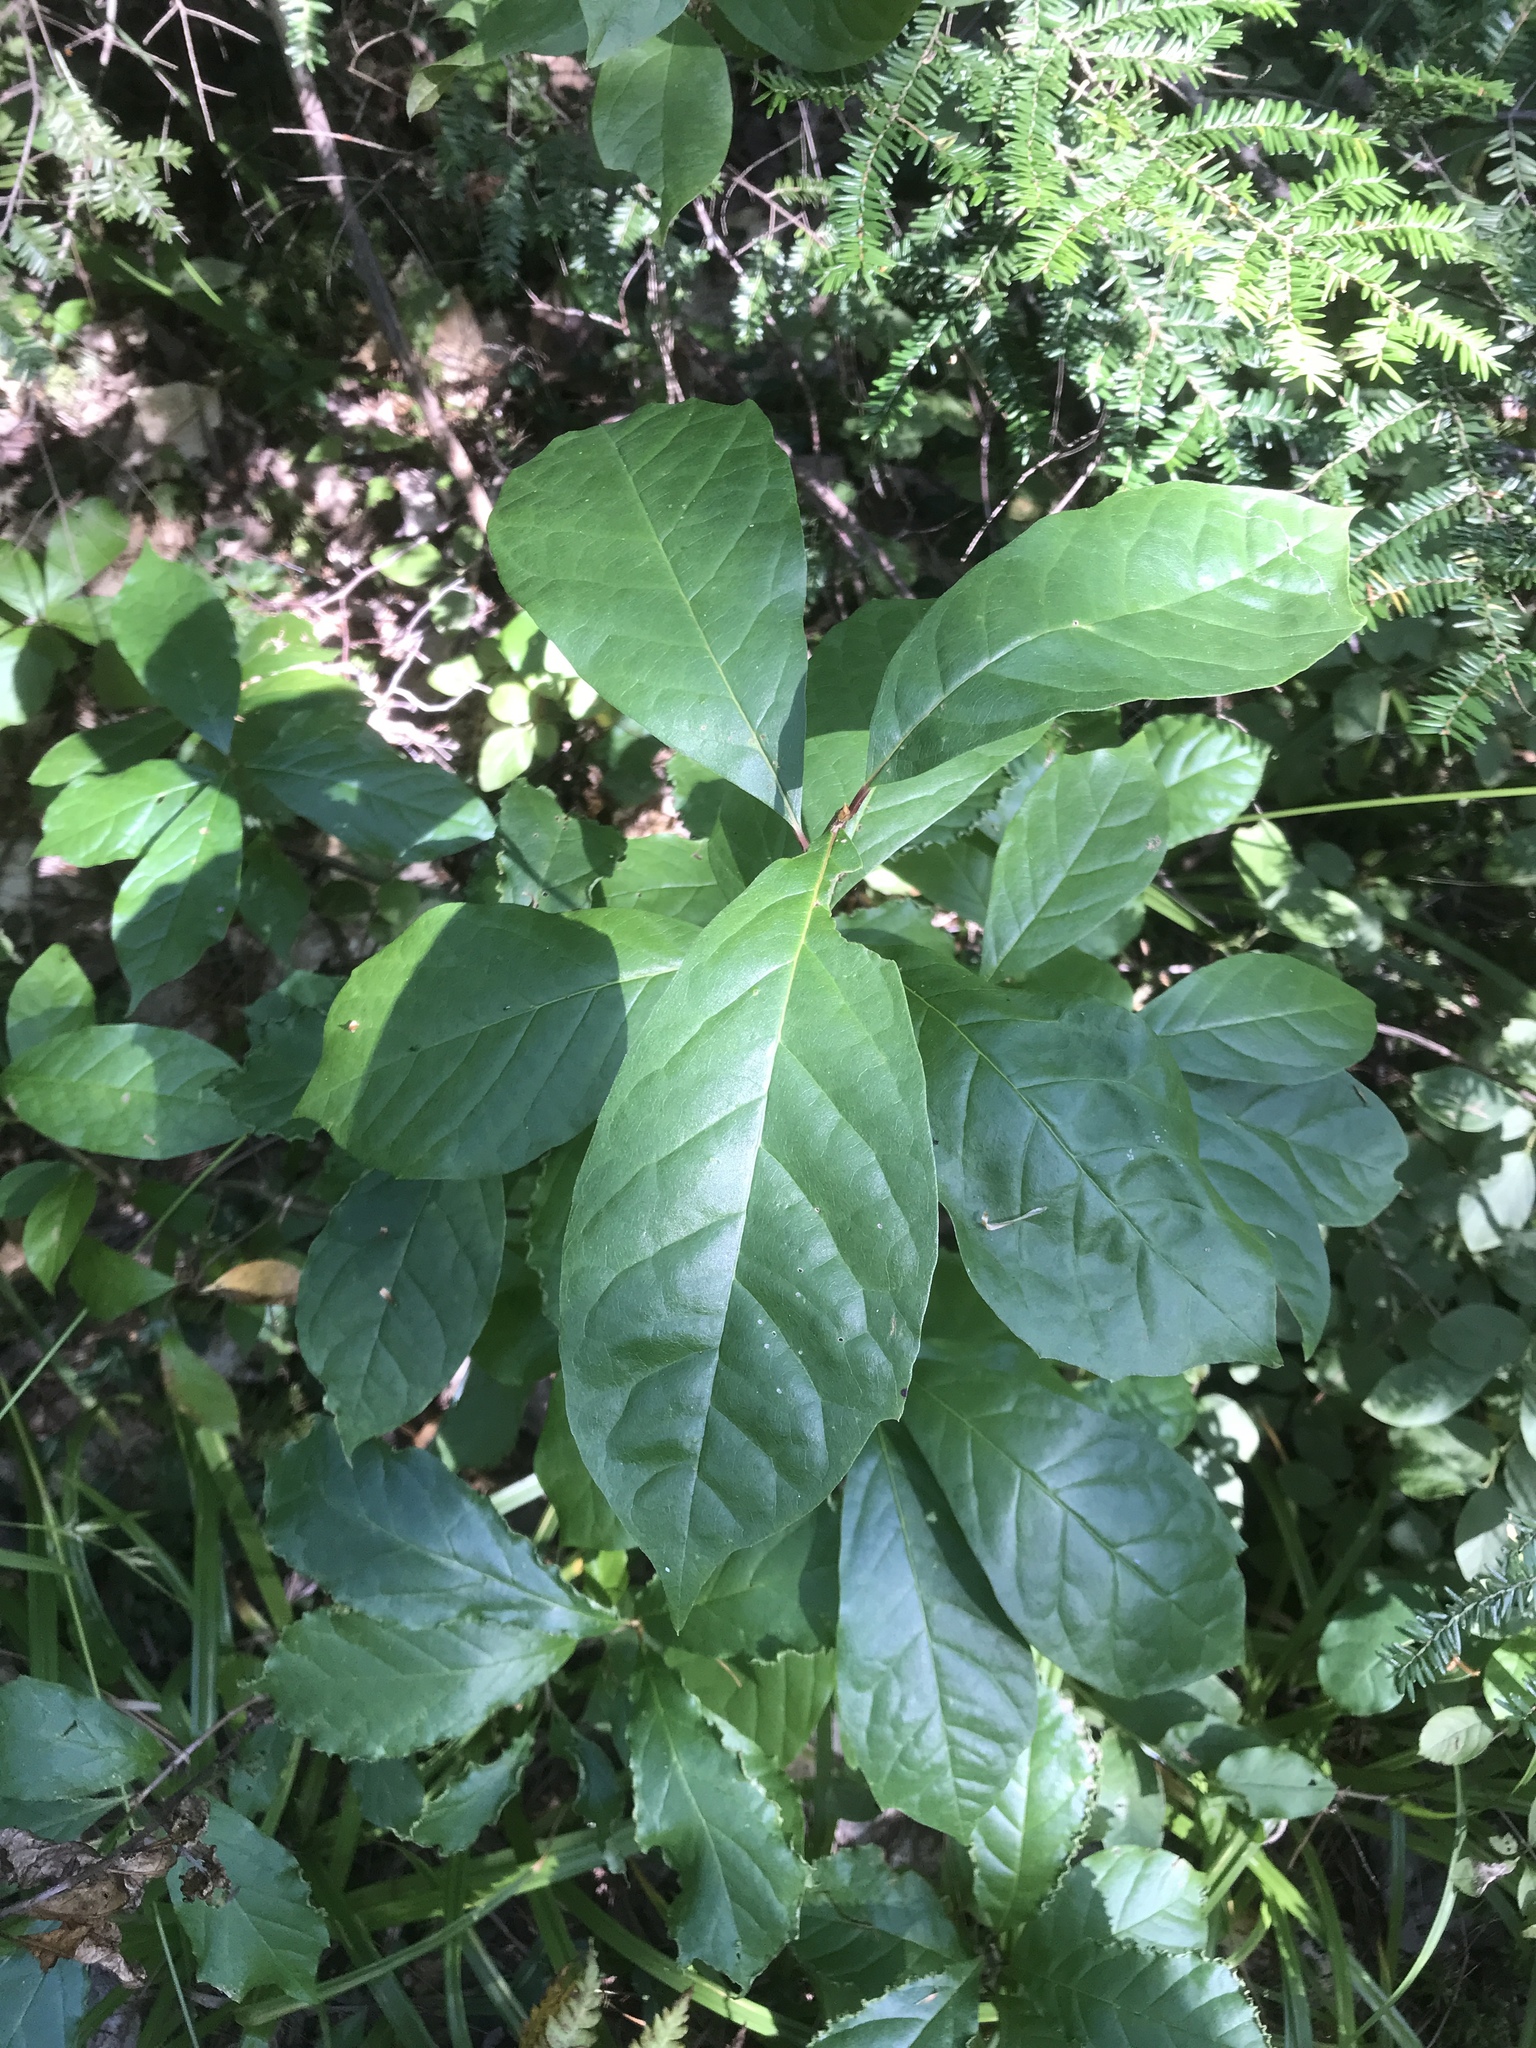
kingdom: Plantae
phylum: Tracheophyta
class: Magnoliopsida
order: Cornales
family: Nyssaceae
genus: Nyssa
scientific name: Nyssa sylvatica
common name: Black tupelo
